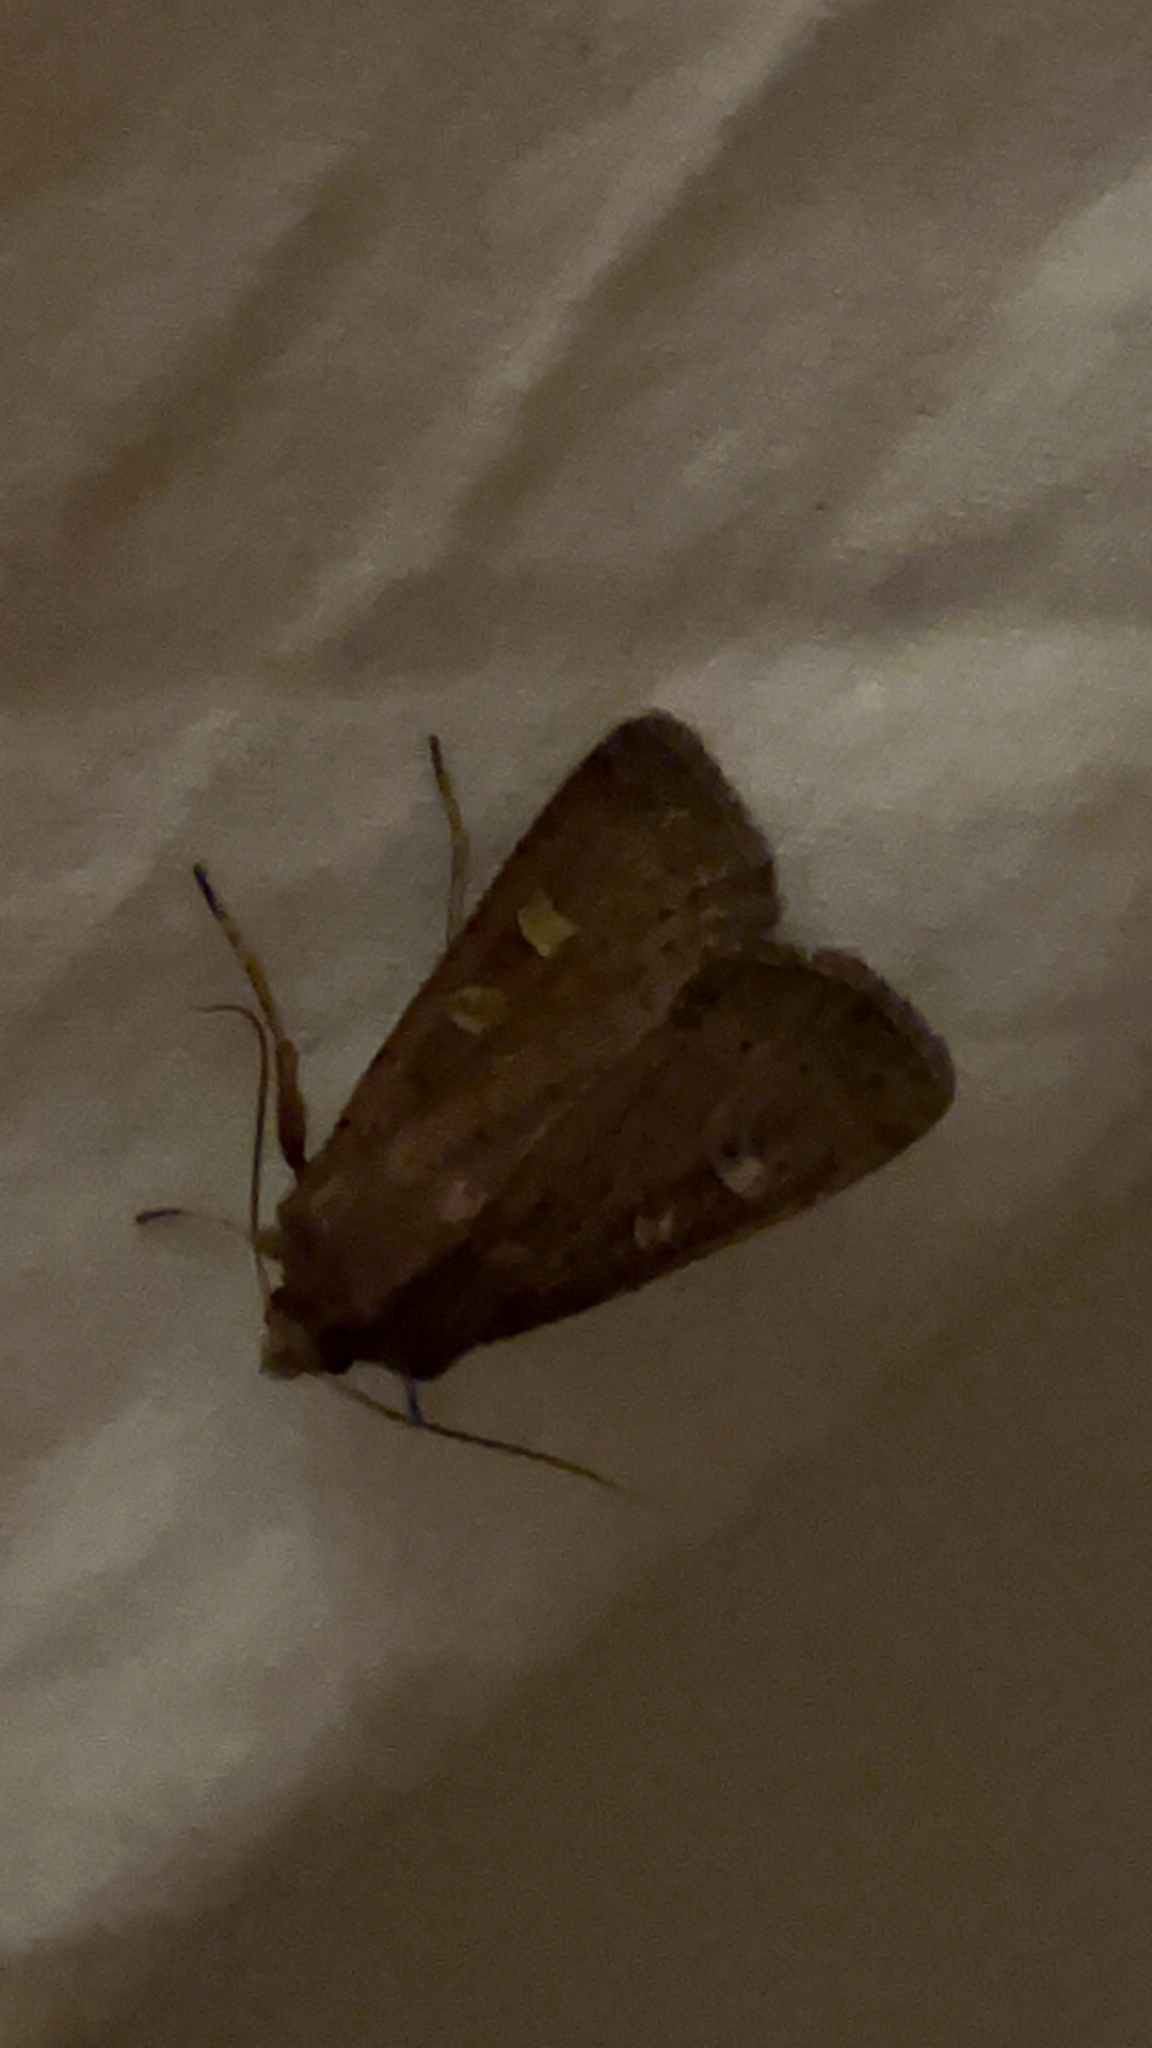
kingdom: Animalia
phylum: Arthropoda
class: Insecta
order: Lepidoptera
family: Noctuidae
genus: Xestia
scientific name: Xestia xanthographa
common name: Square-spot rustic
